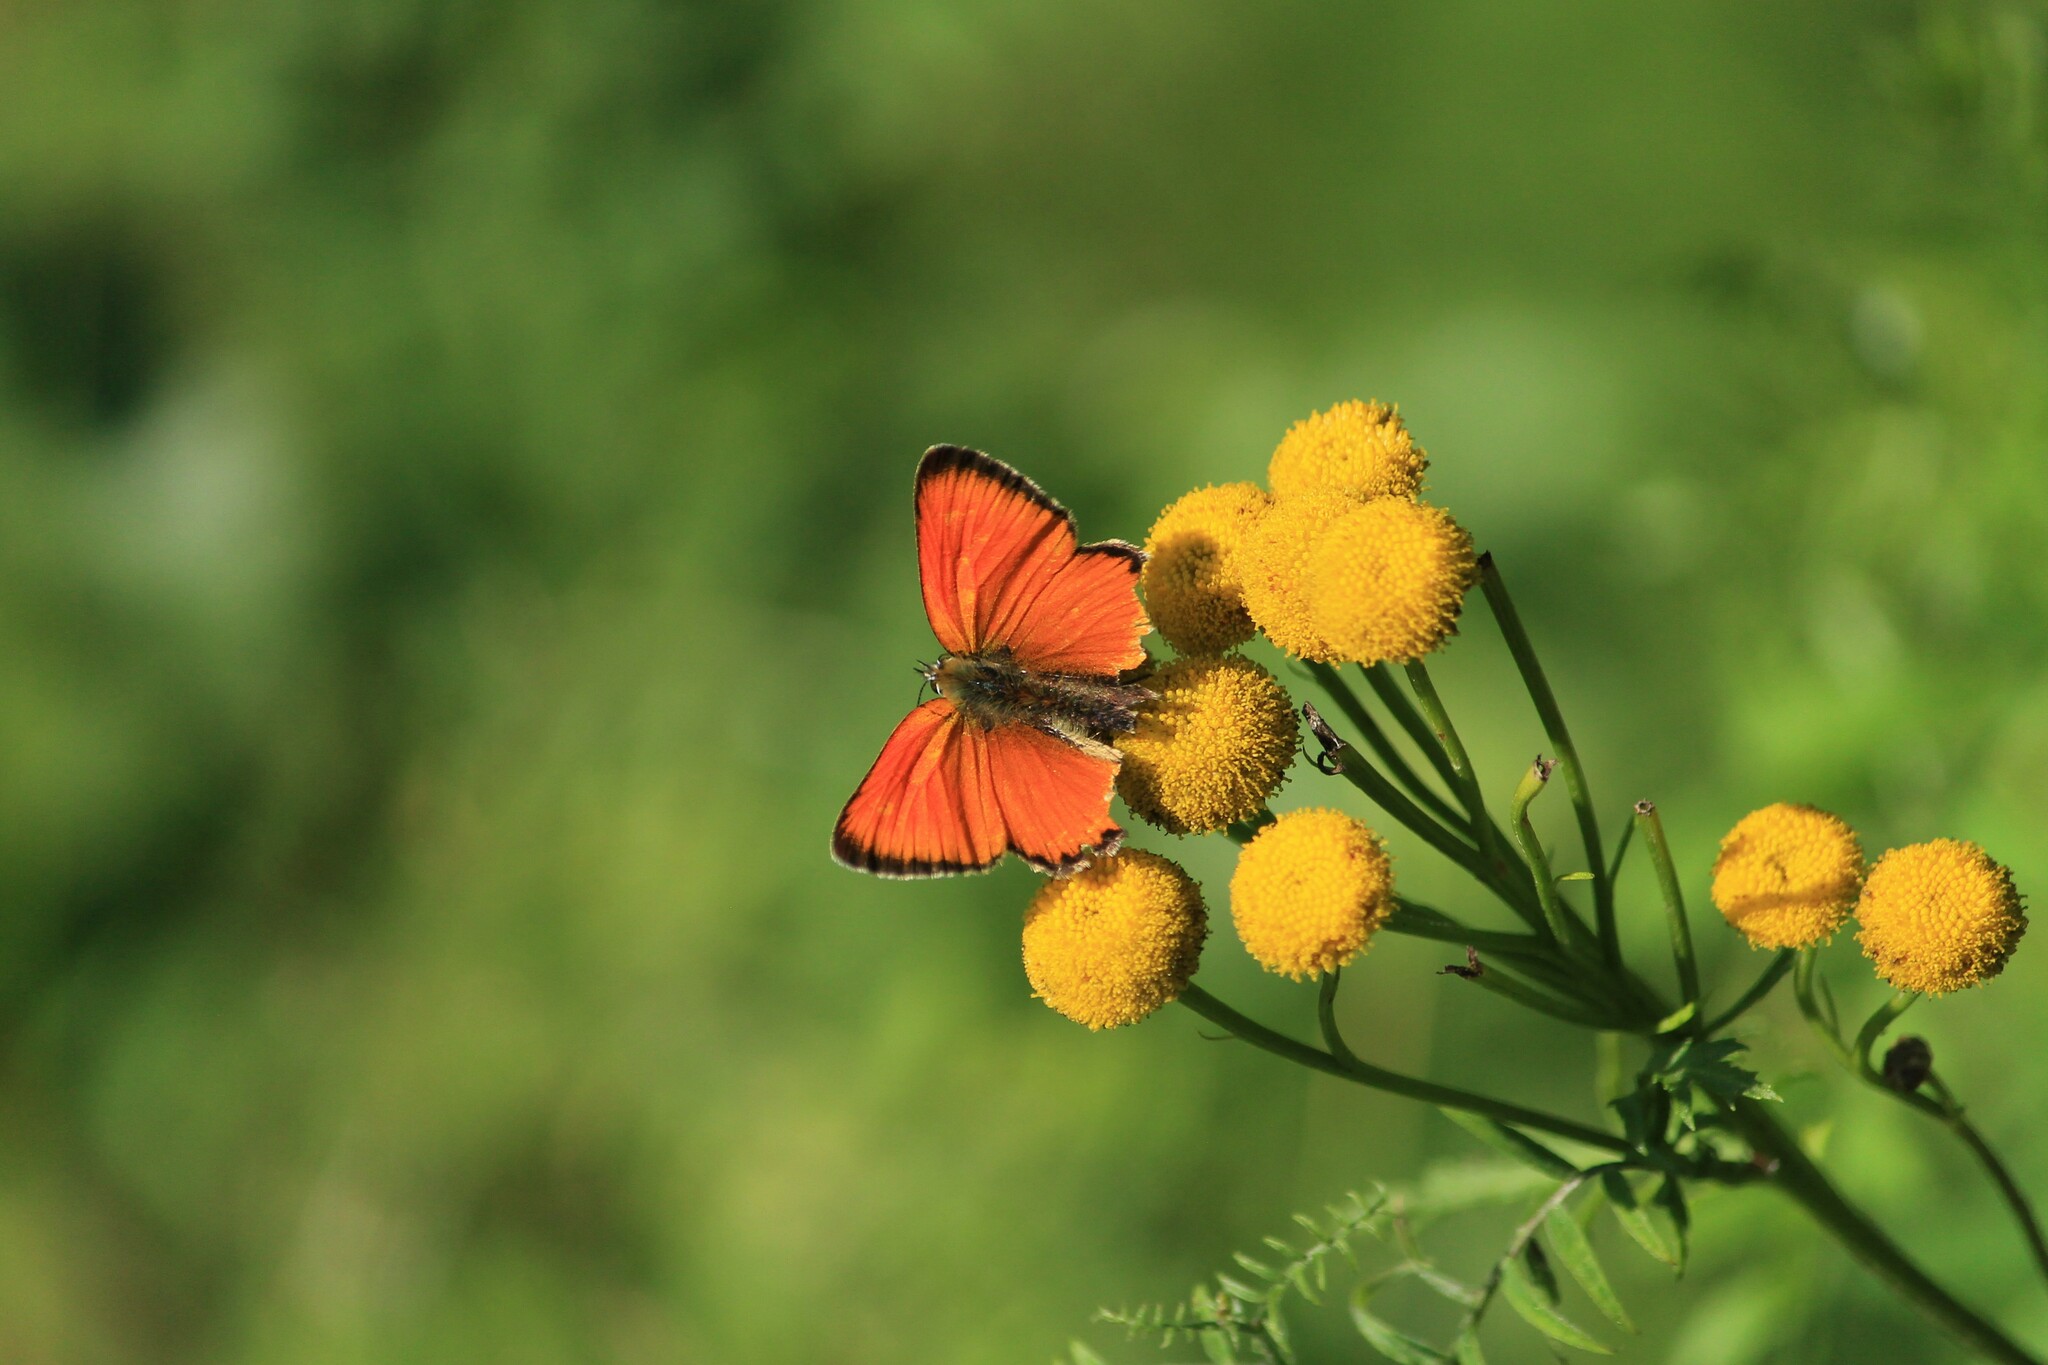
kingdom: Animalia
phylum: Arthropoda
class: Insecta
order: Lepidoptera
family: Lycaenidae
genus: Lycaena
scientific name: Lycaena virgaureae
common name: Scarce copper
